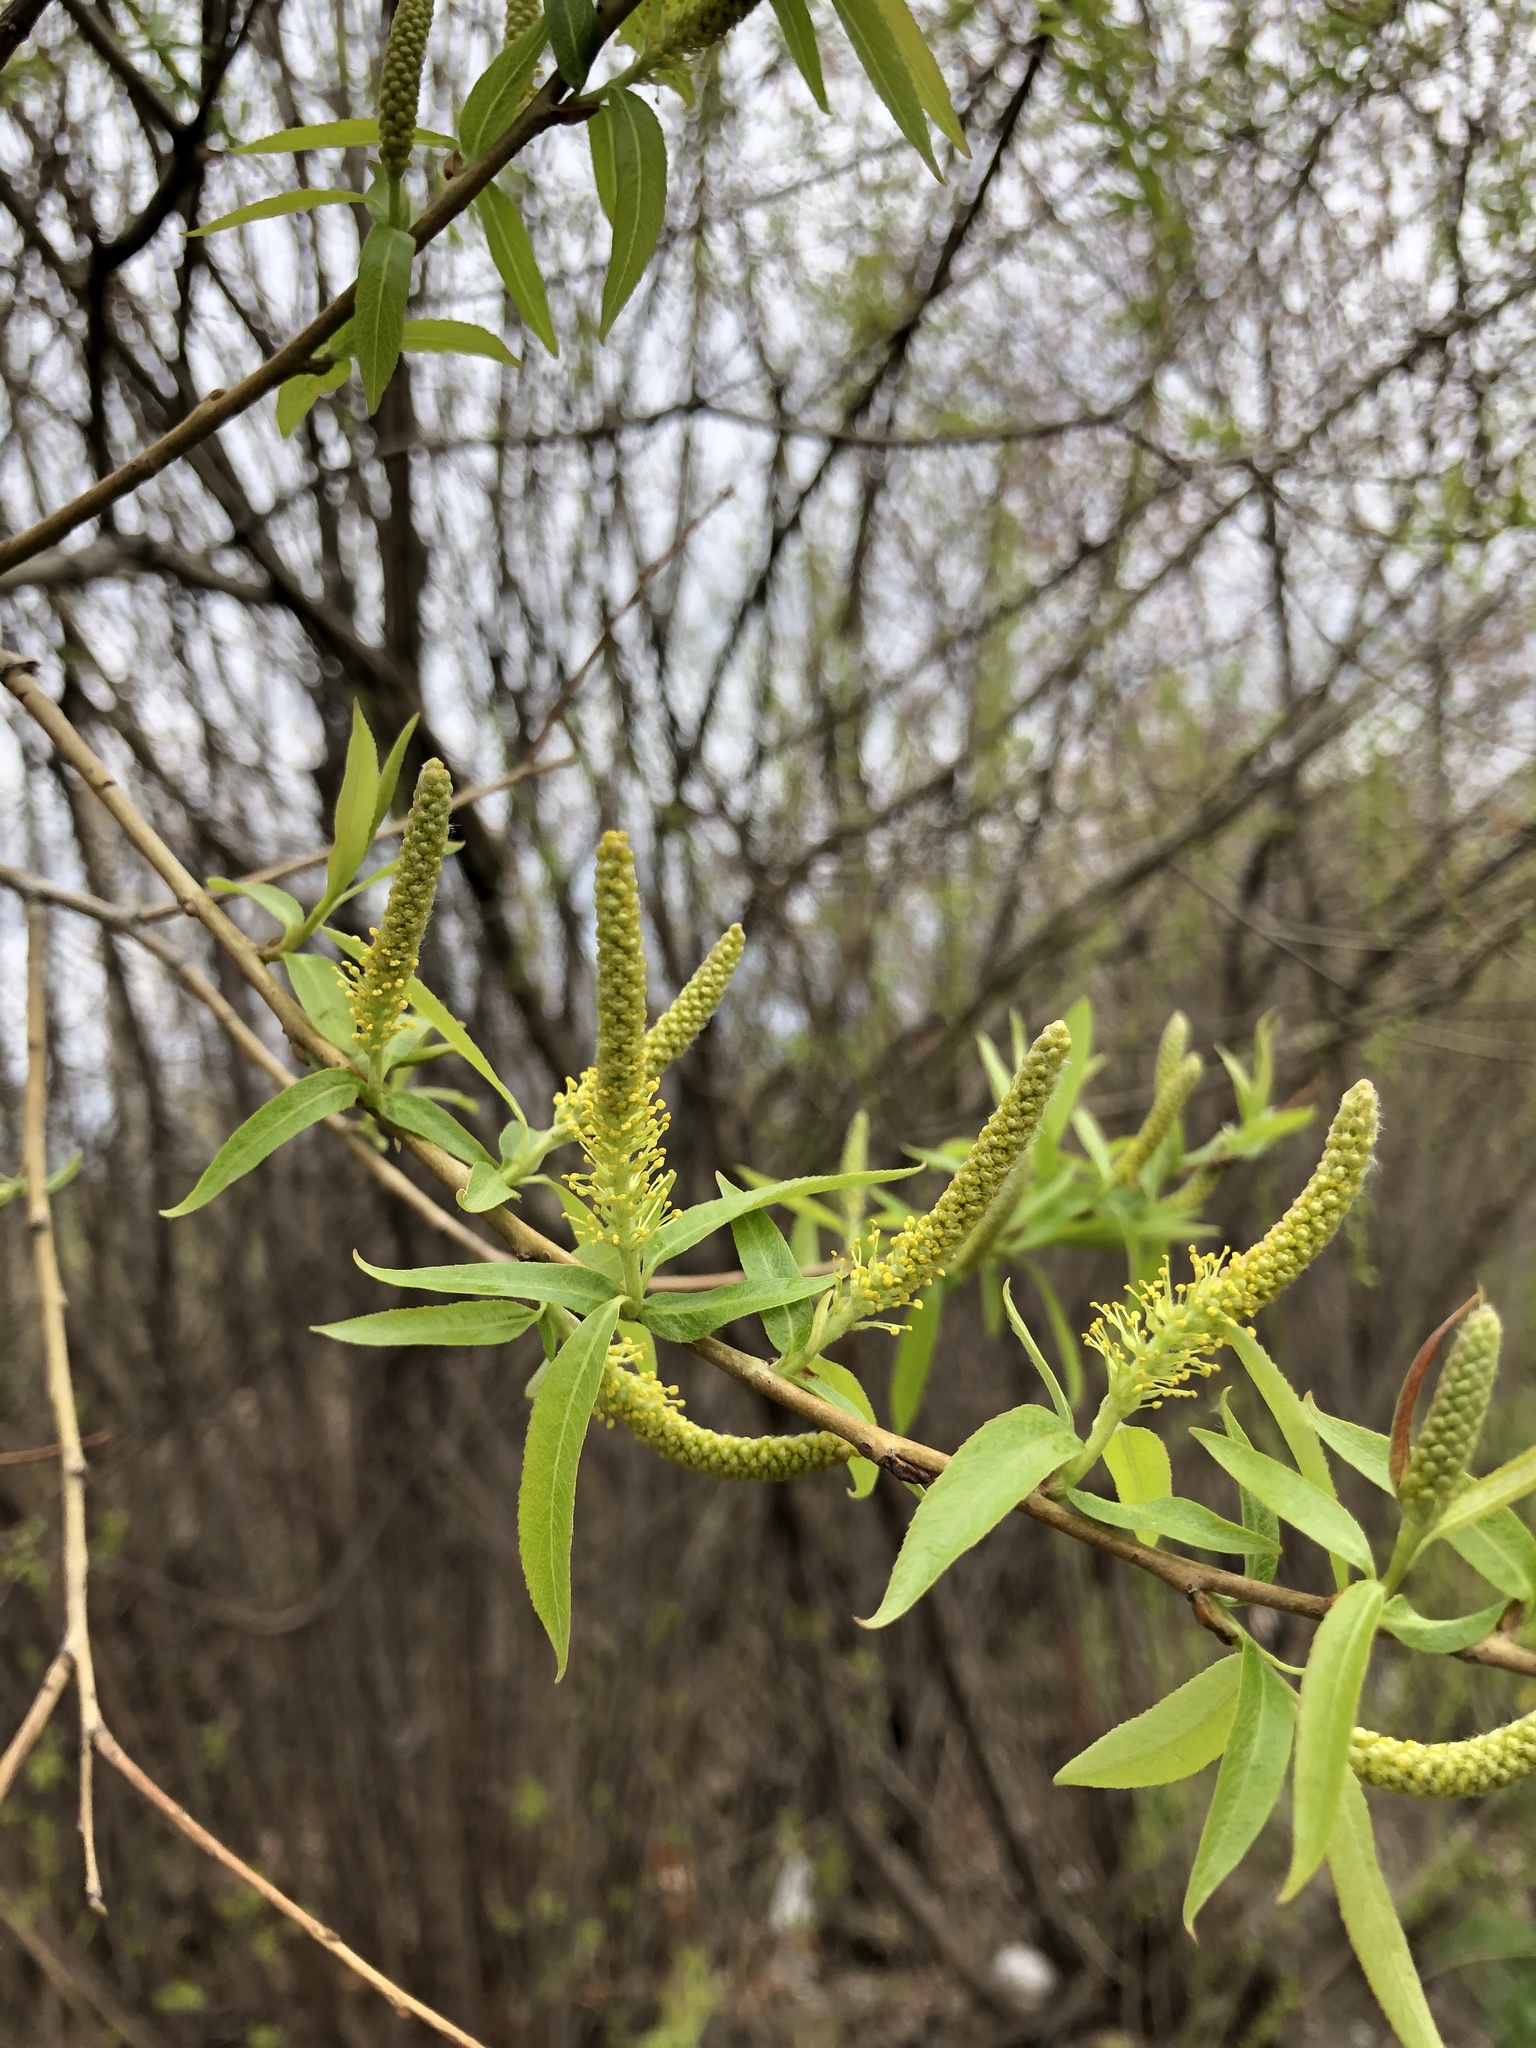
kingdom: Plantae
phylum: Tracheophyta
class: Magnoliopsida
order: Malpighiales
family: Salicaceae
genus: Salix
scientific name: Salix triandra
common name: Almond willow
